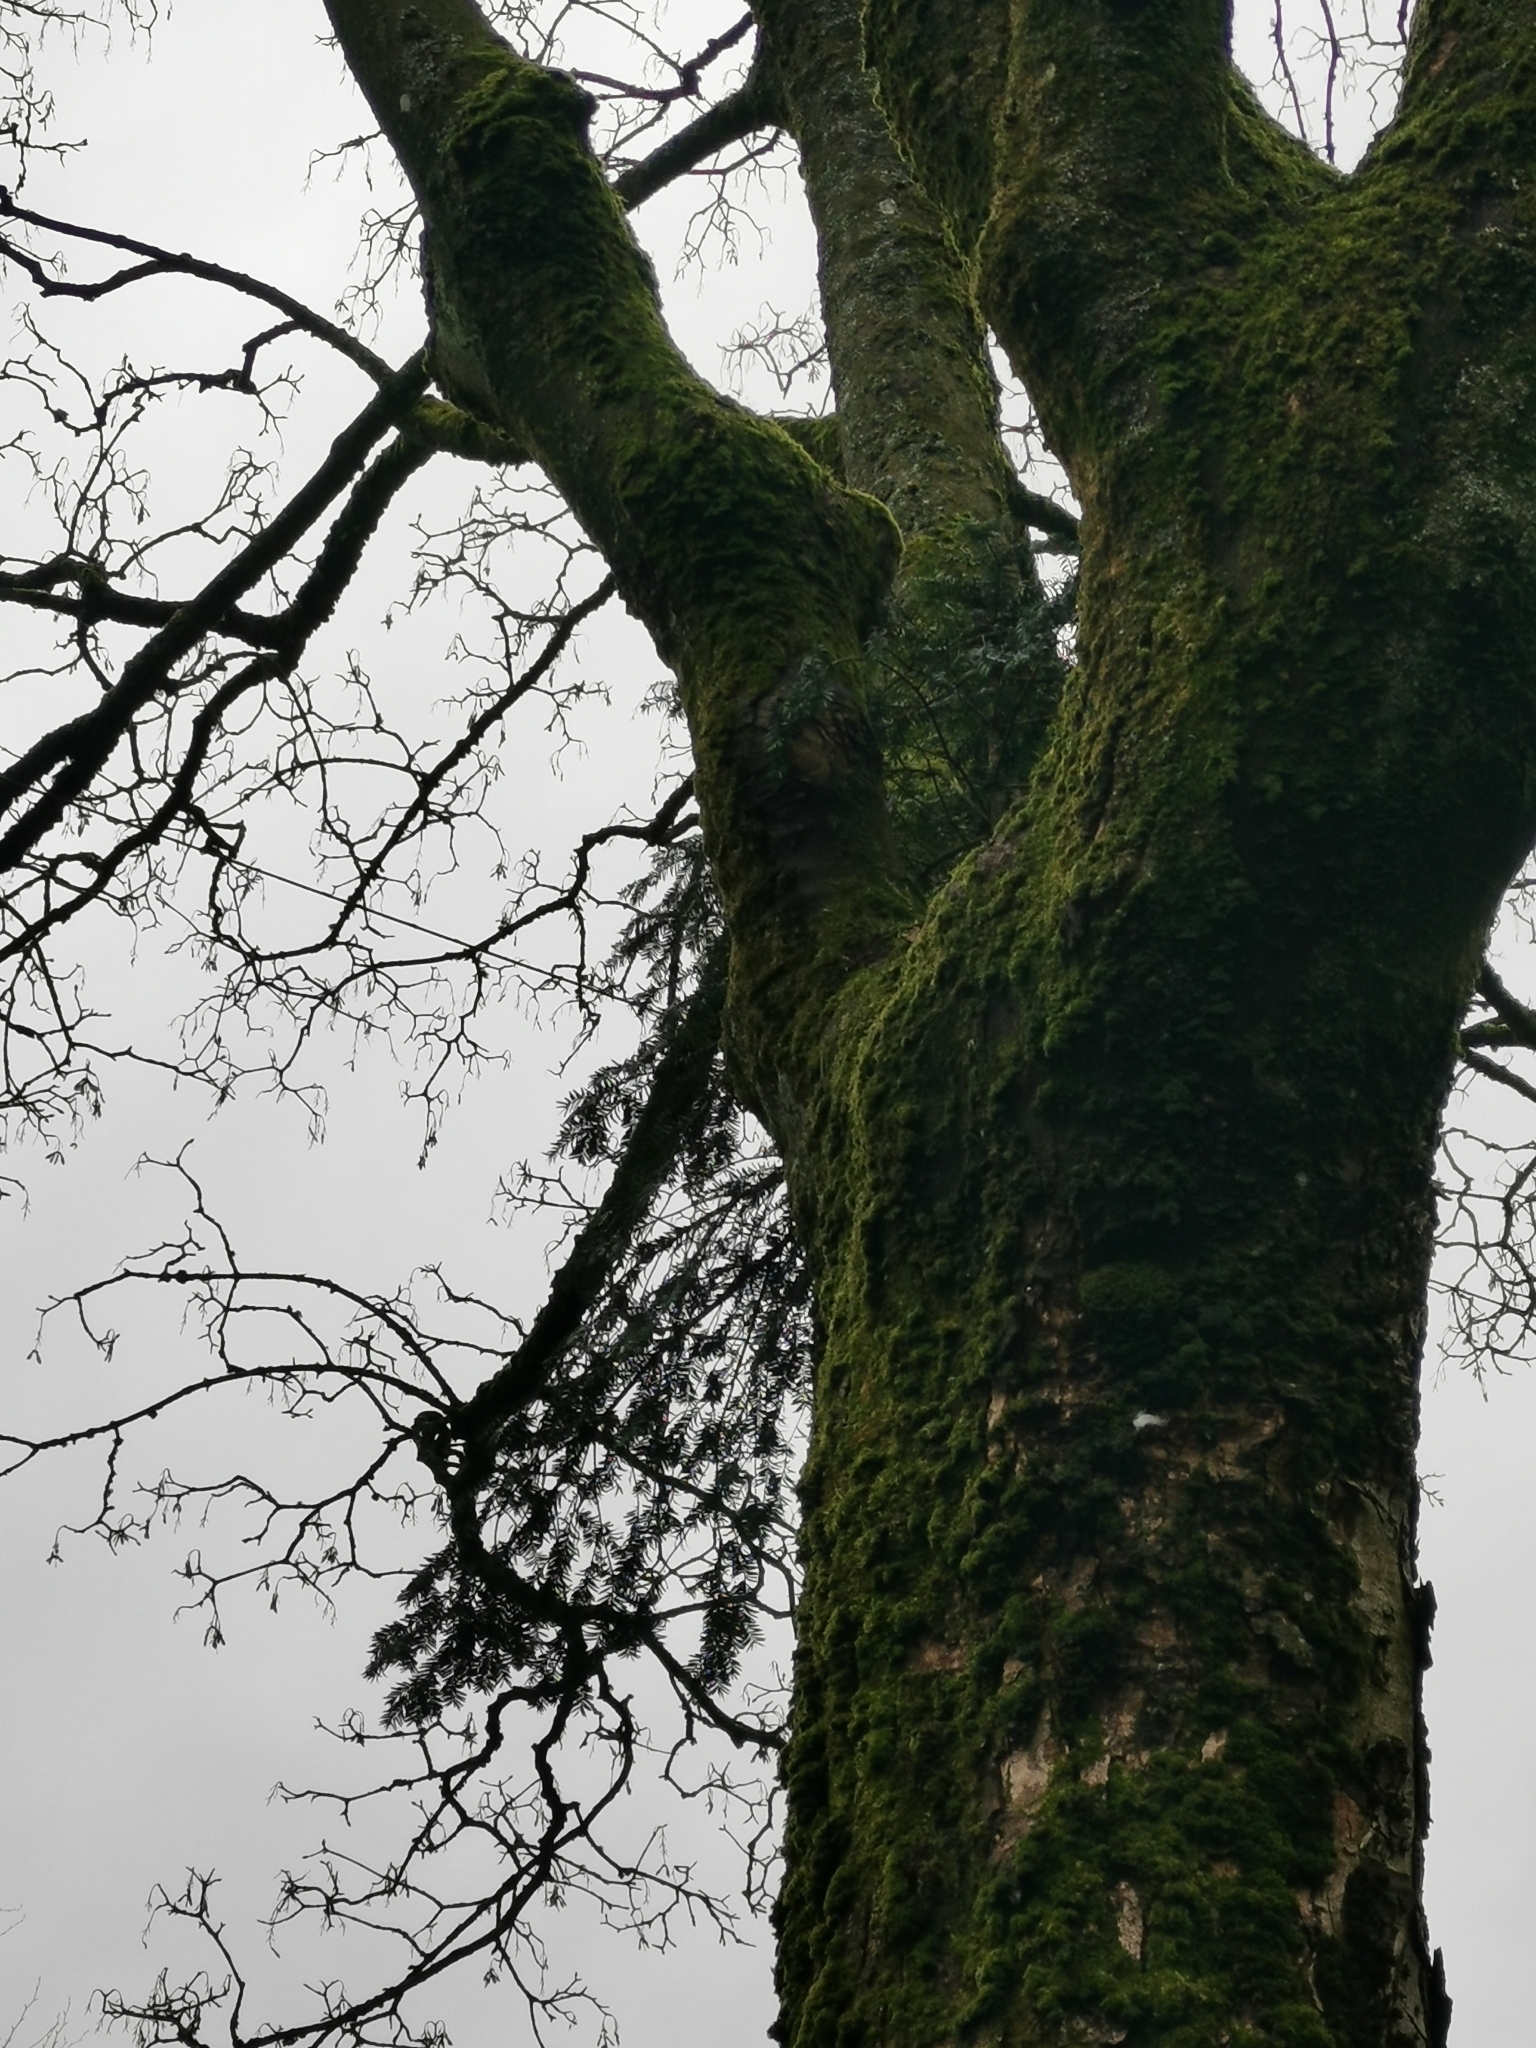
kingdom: Plantae
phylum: Tracheophyta
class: Pinopsida
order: Pinales
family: Taxaceae
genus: Taxus
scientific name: Taxus baccata
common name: Yew
